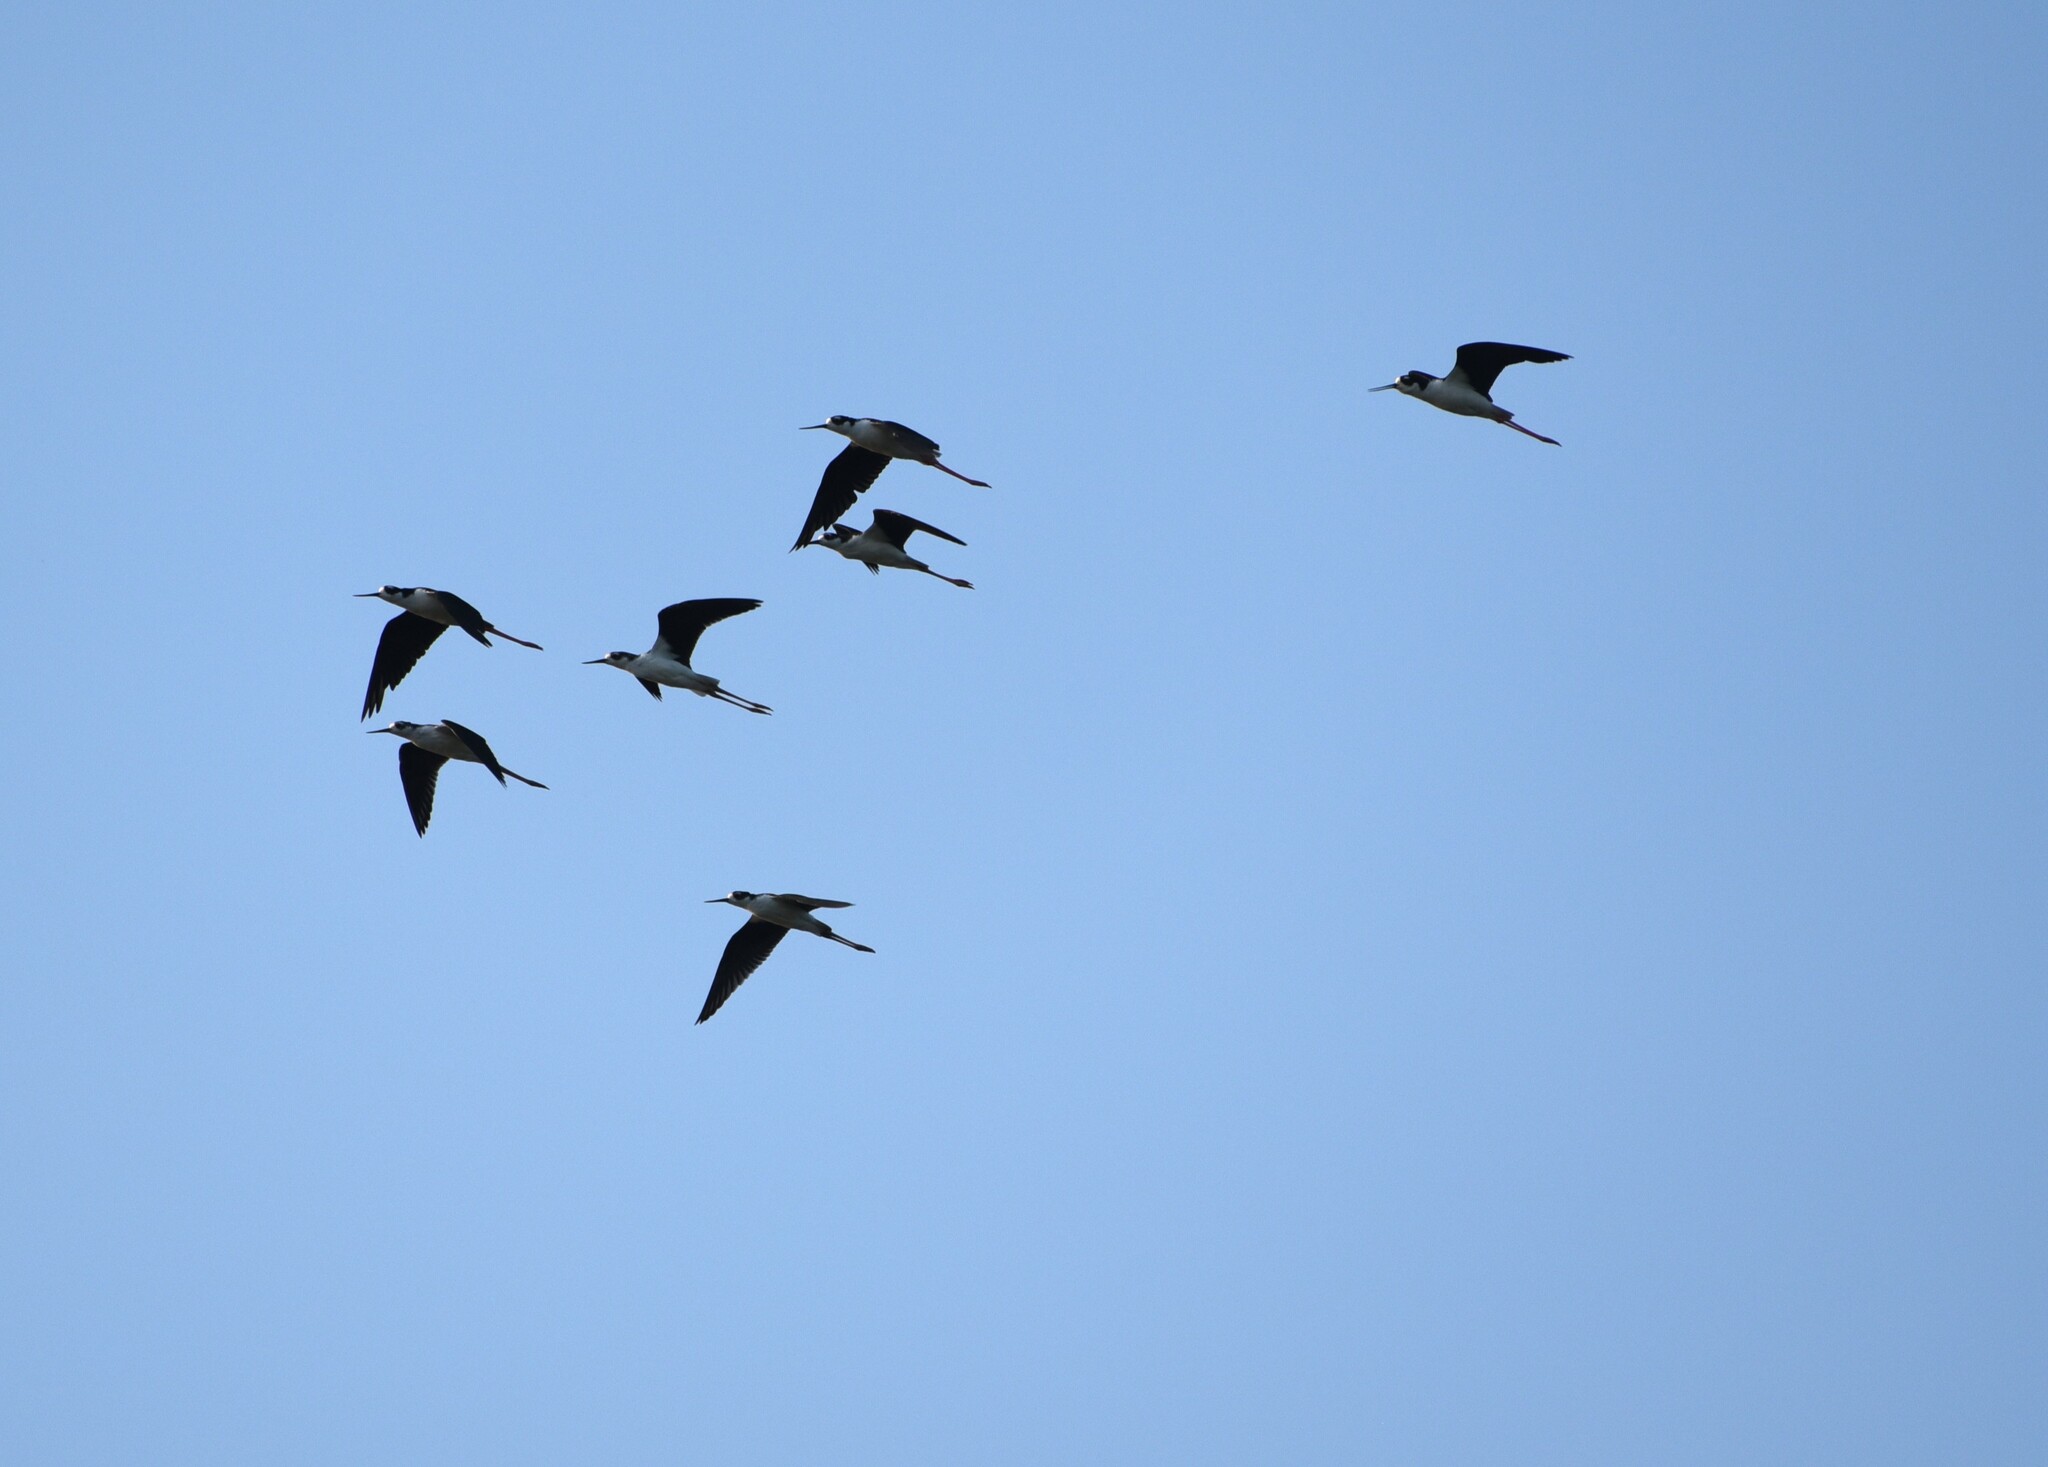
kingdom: Animalia
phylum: Chordata
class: Aves
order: Charadriiformes
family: Recurvirostridae
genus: Himantopus
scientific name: Himantopus mexicanus
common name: Black-necked stilt
